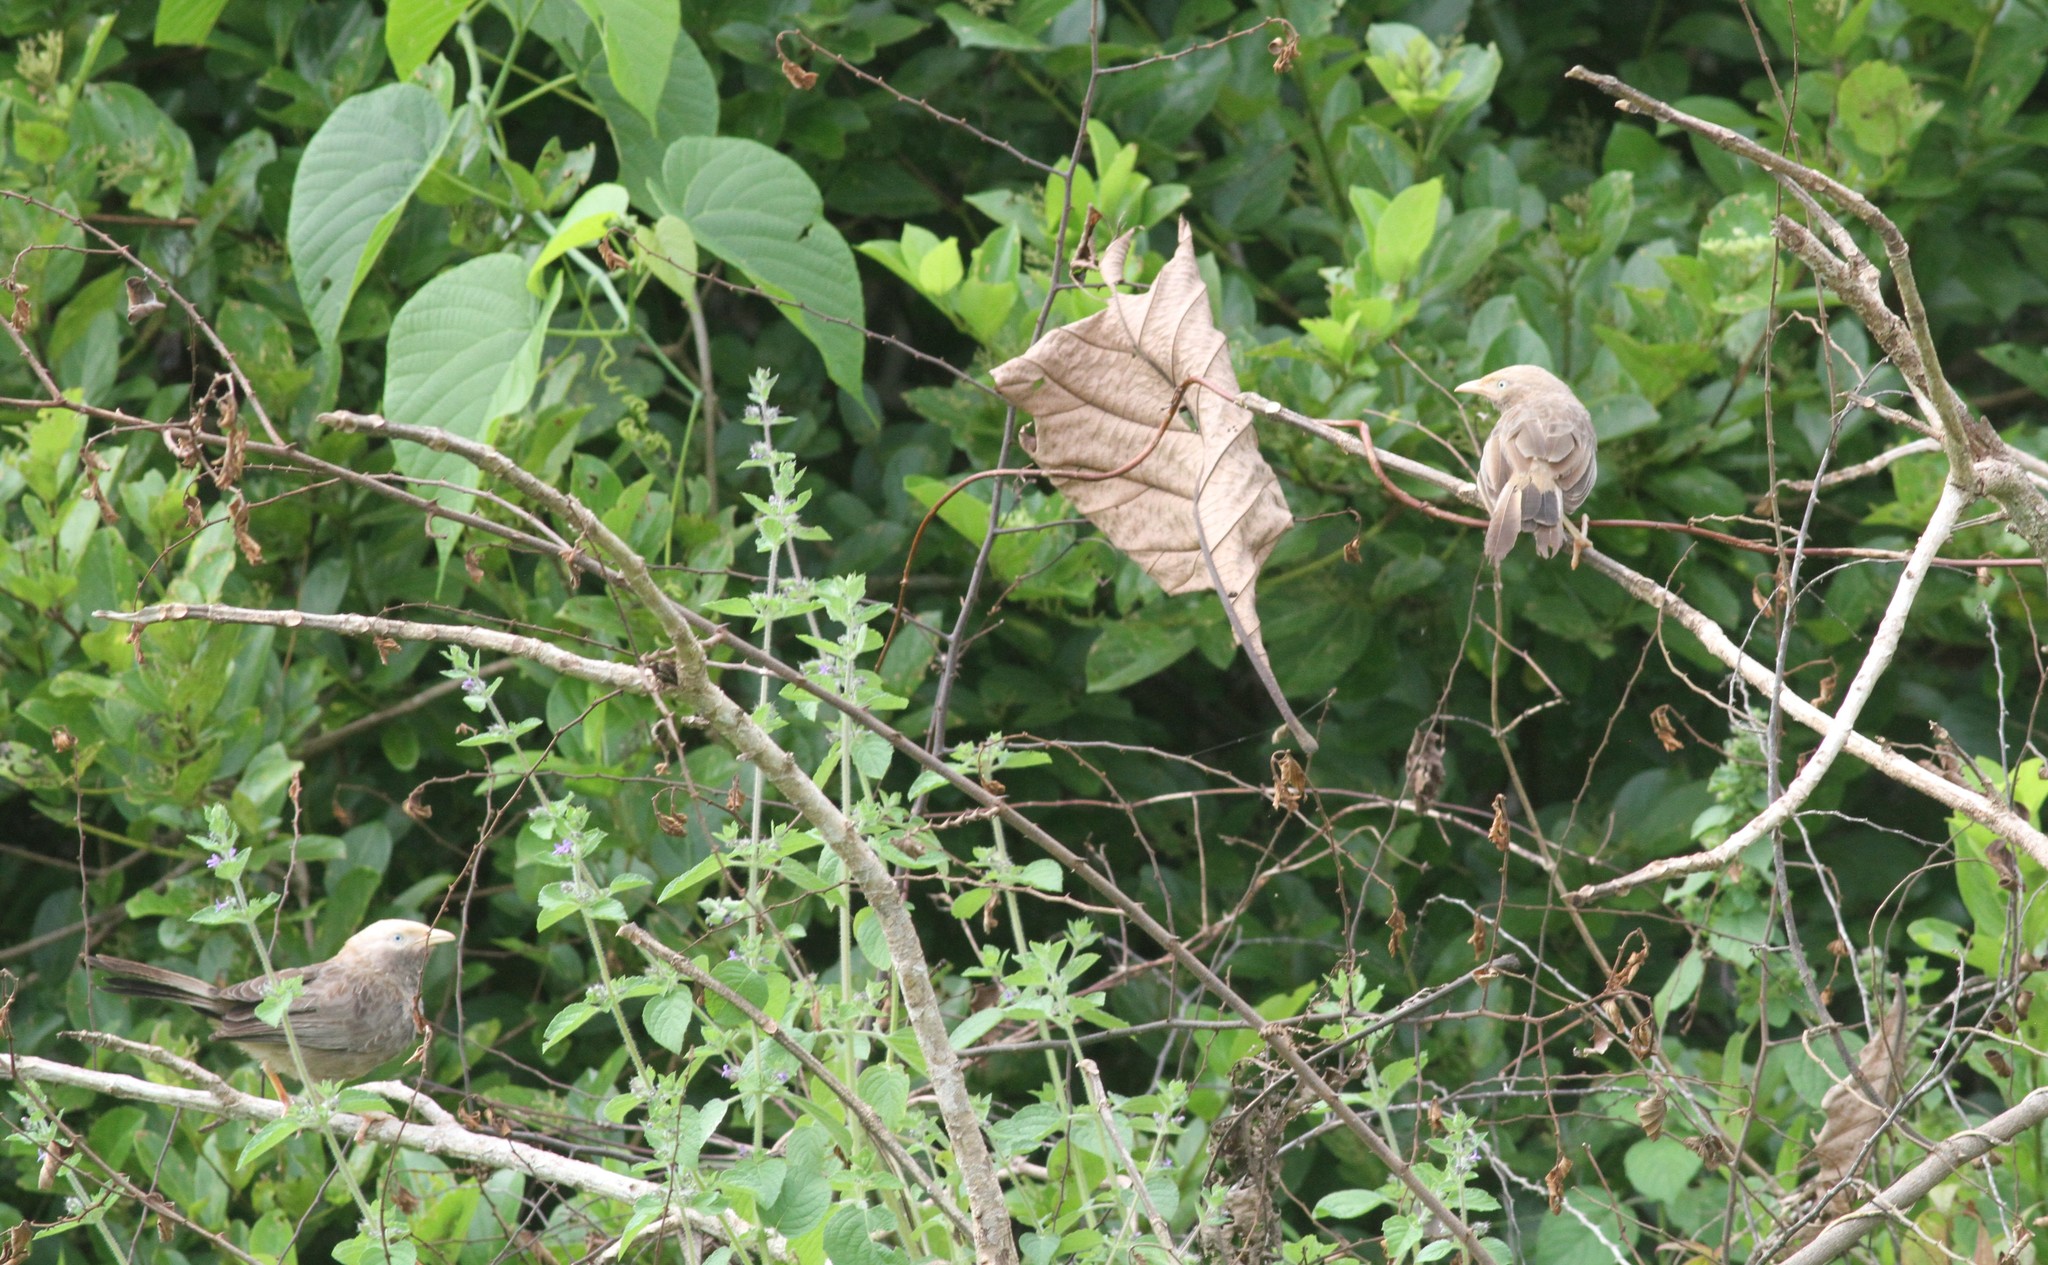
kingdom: Animalia
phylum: Chordata
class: Aves
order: Passeriformes
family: Leiothrichidae
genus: Turdoides
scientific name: Turdoides affinis
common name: Yellow-billed babbler
